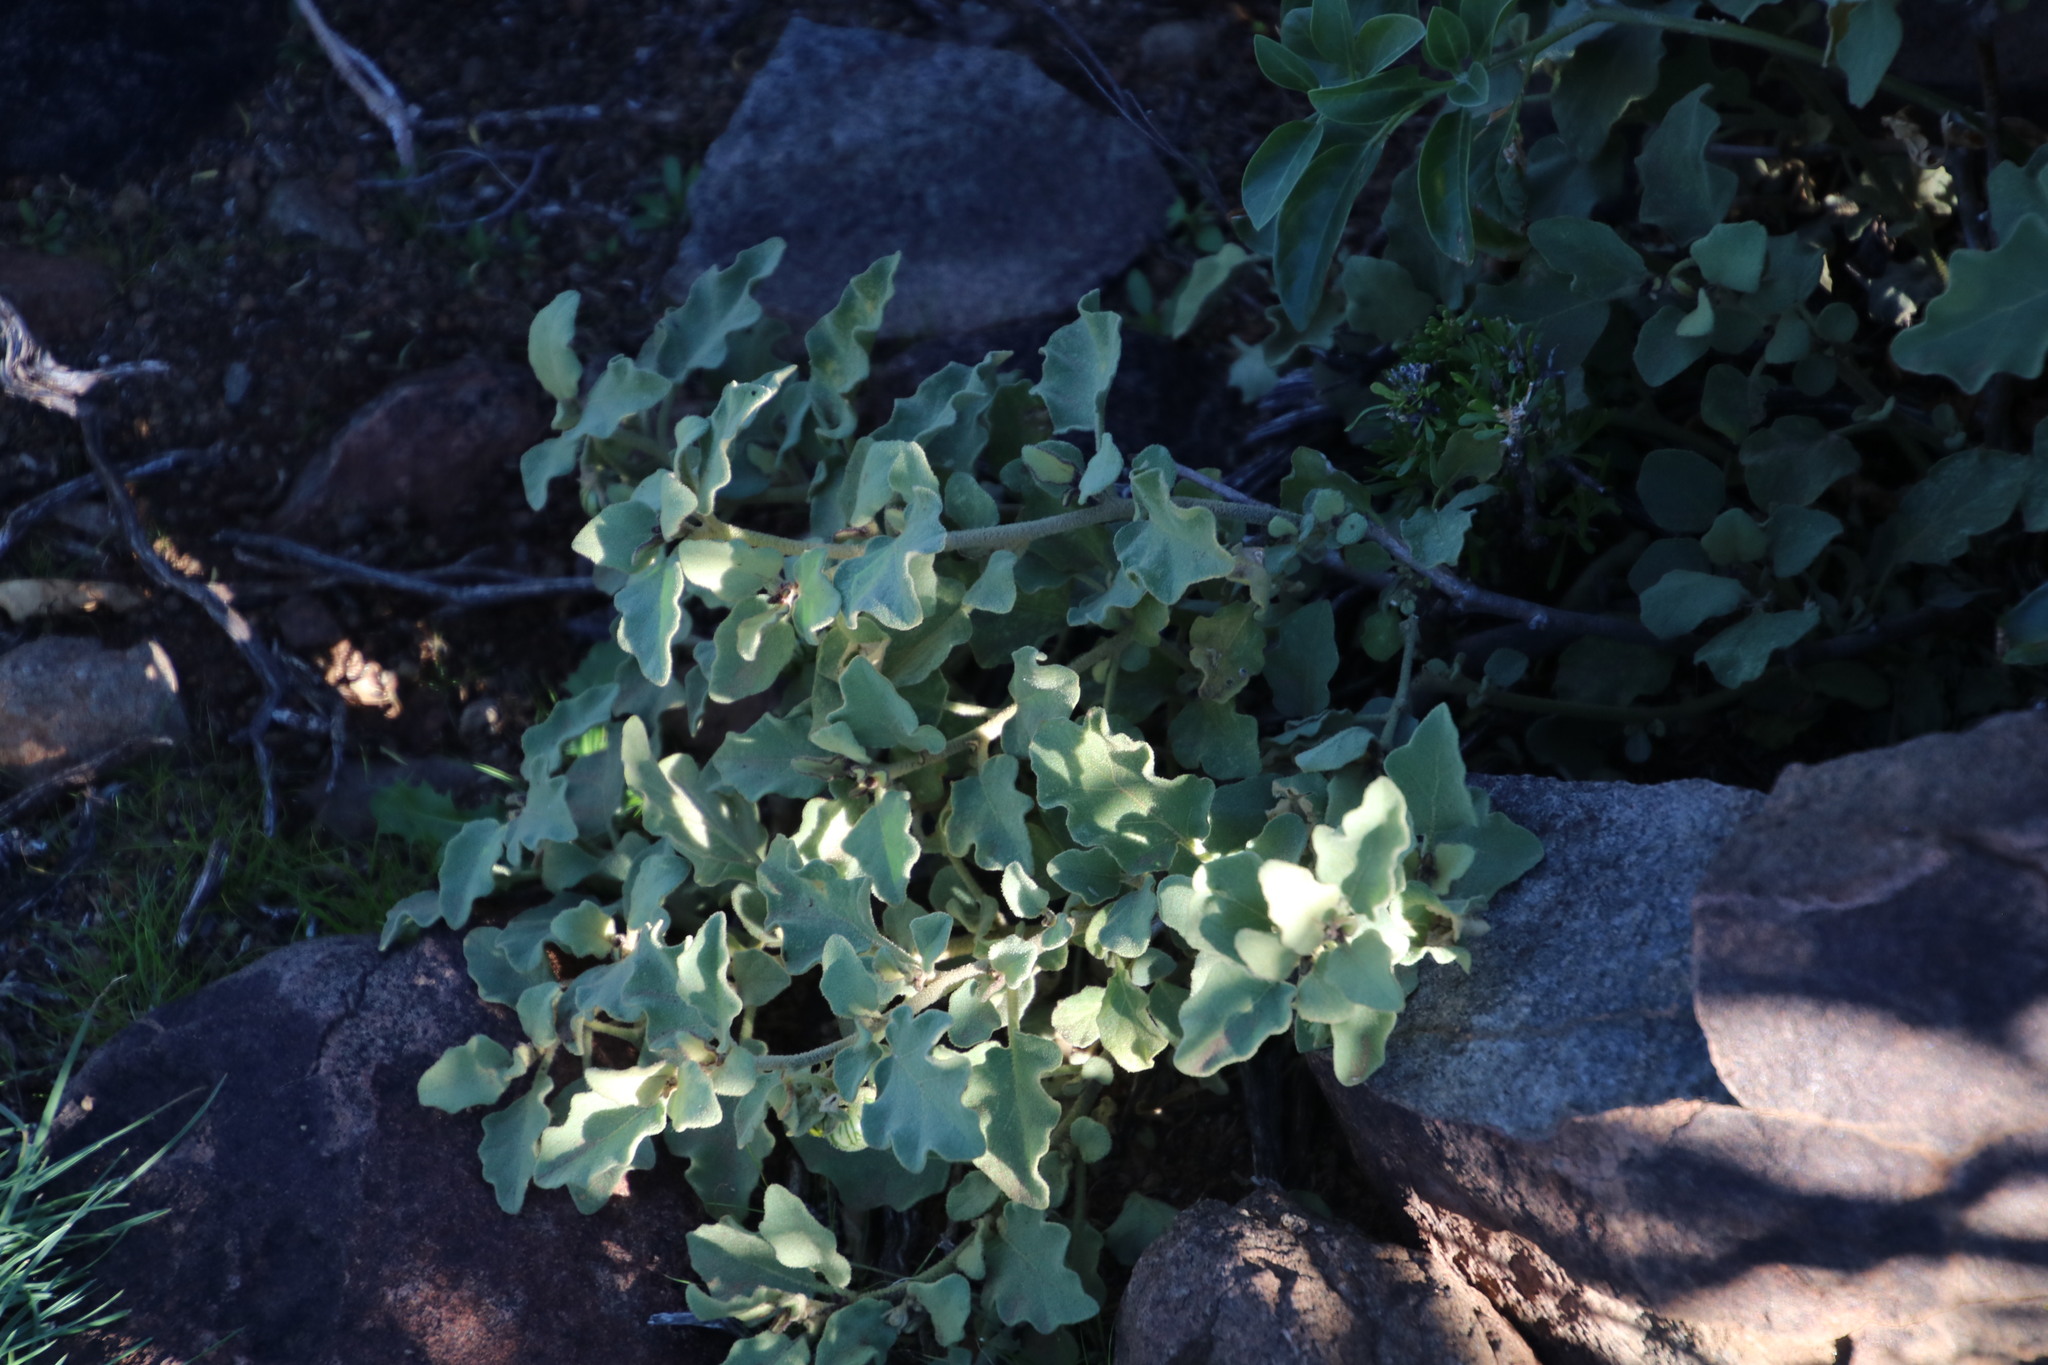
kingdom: Plantae
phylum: Tracheophyta
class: Magnoliopsida
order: Solanales
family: Solanaceae
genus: Solanum
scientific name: Solanum tomentosum
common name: Wild aubergine
